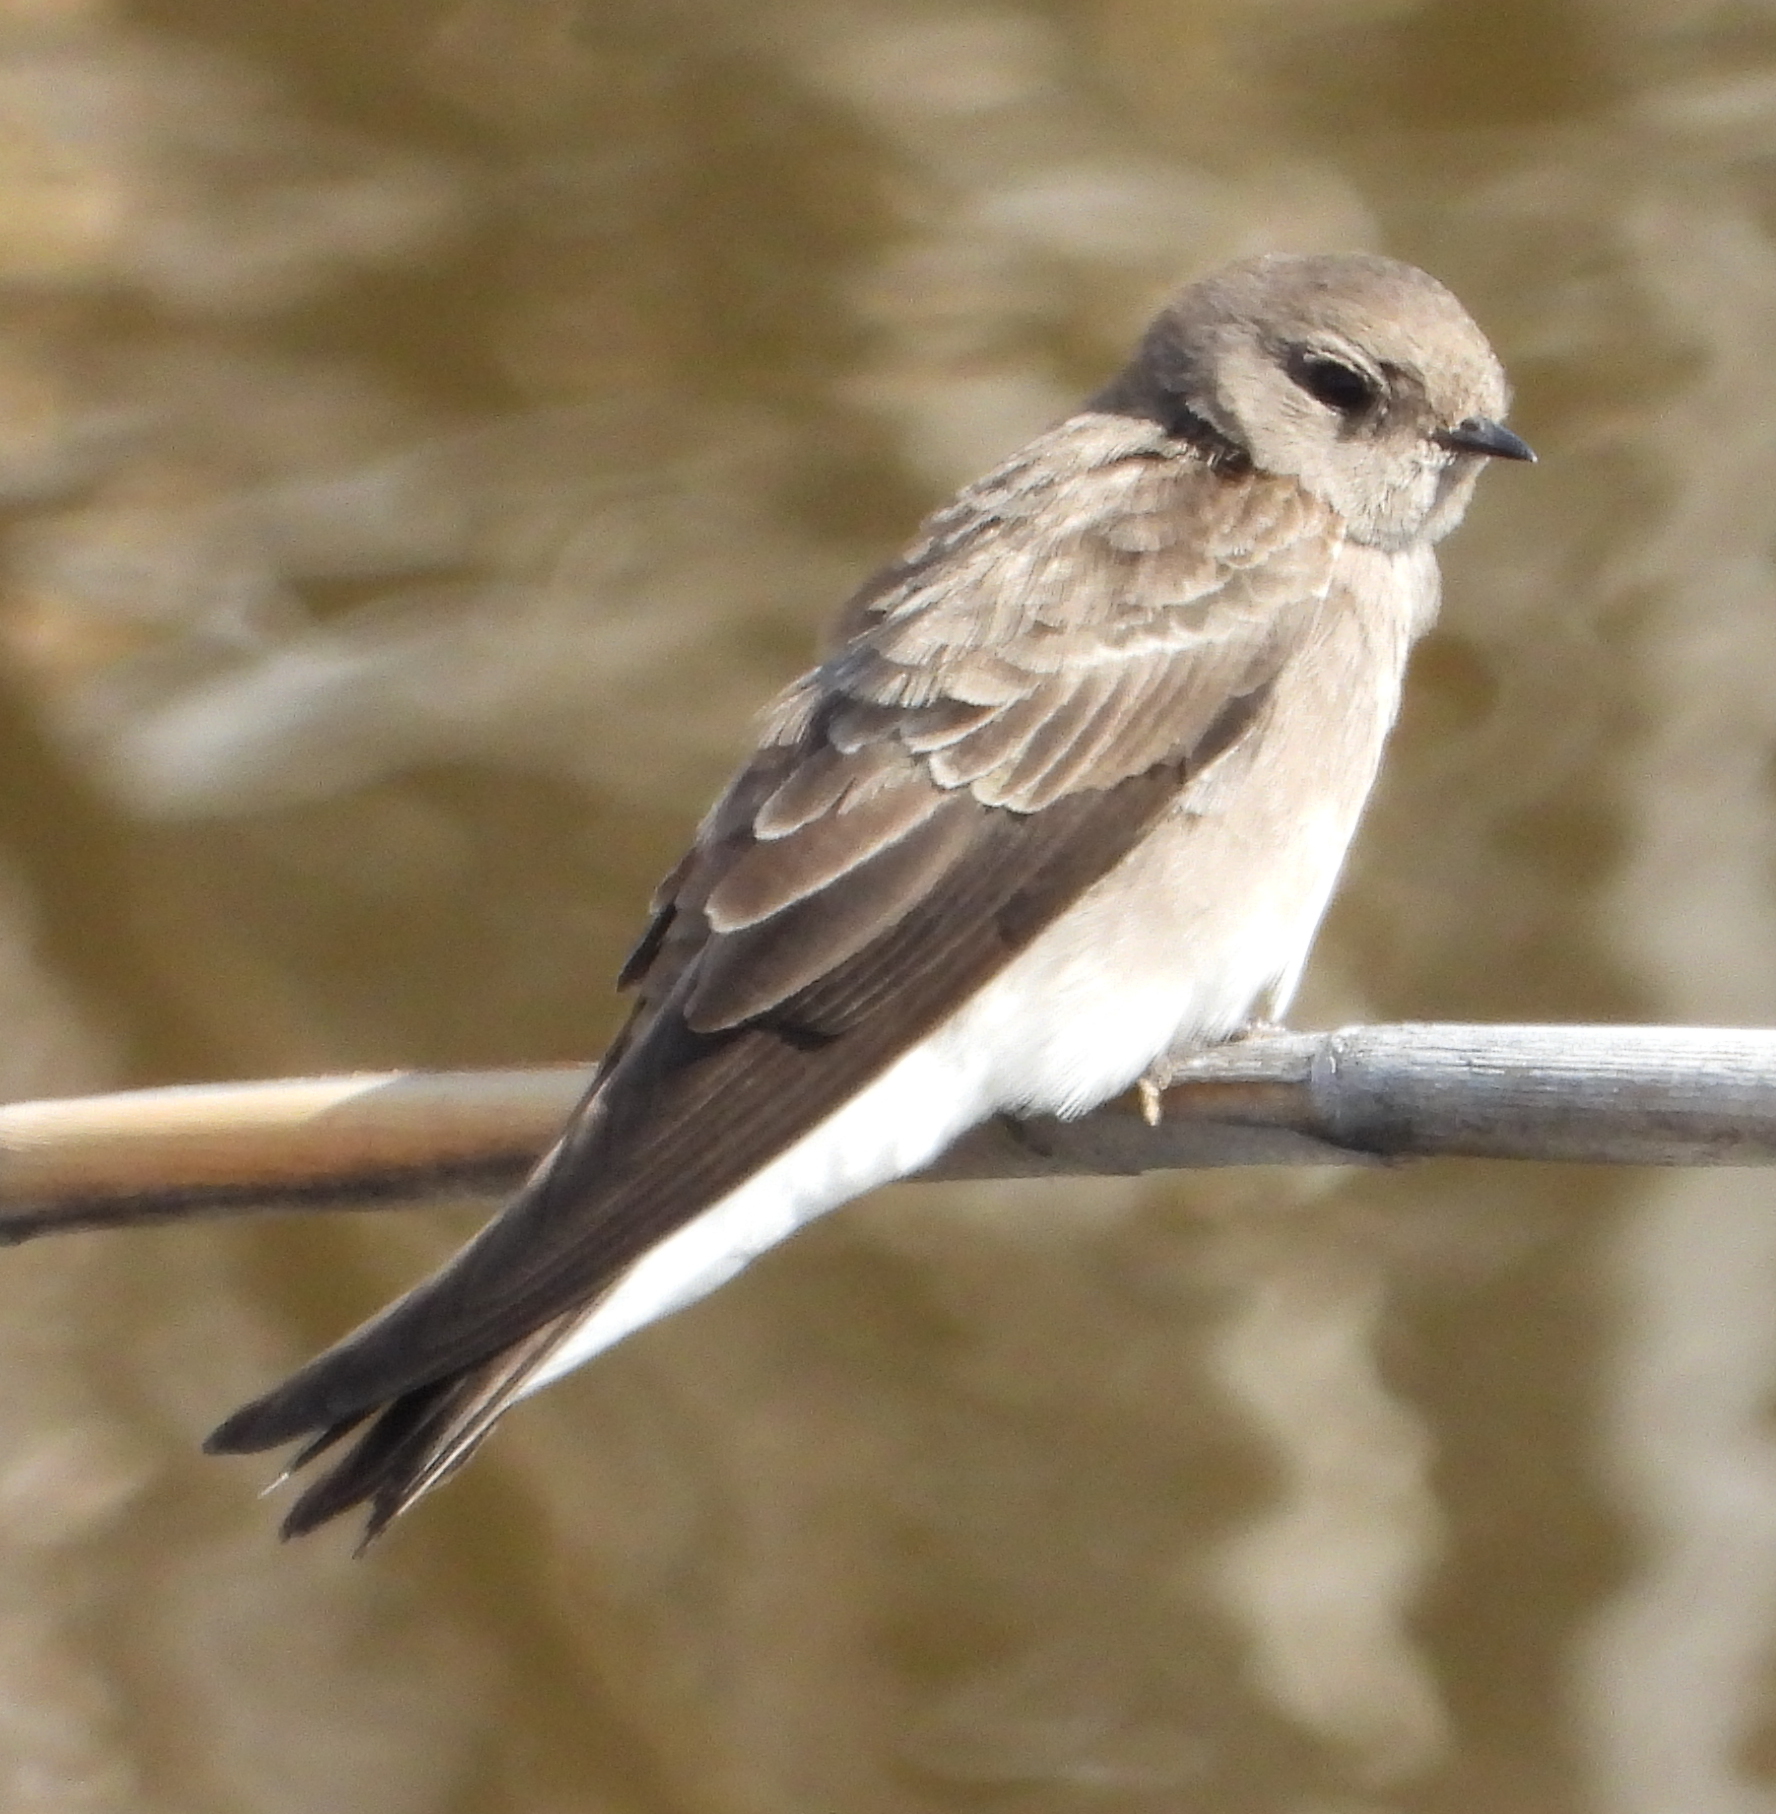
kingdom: Animalia
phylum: Chordata
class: Aves
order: Passeriformes
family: Hirundinidae
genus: Riparia
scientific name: Riparia paludicola
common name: Brown-throated martin
